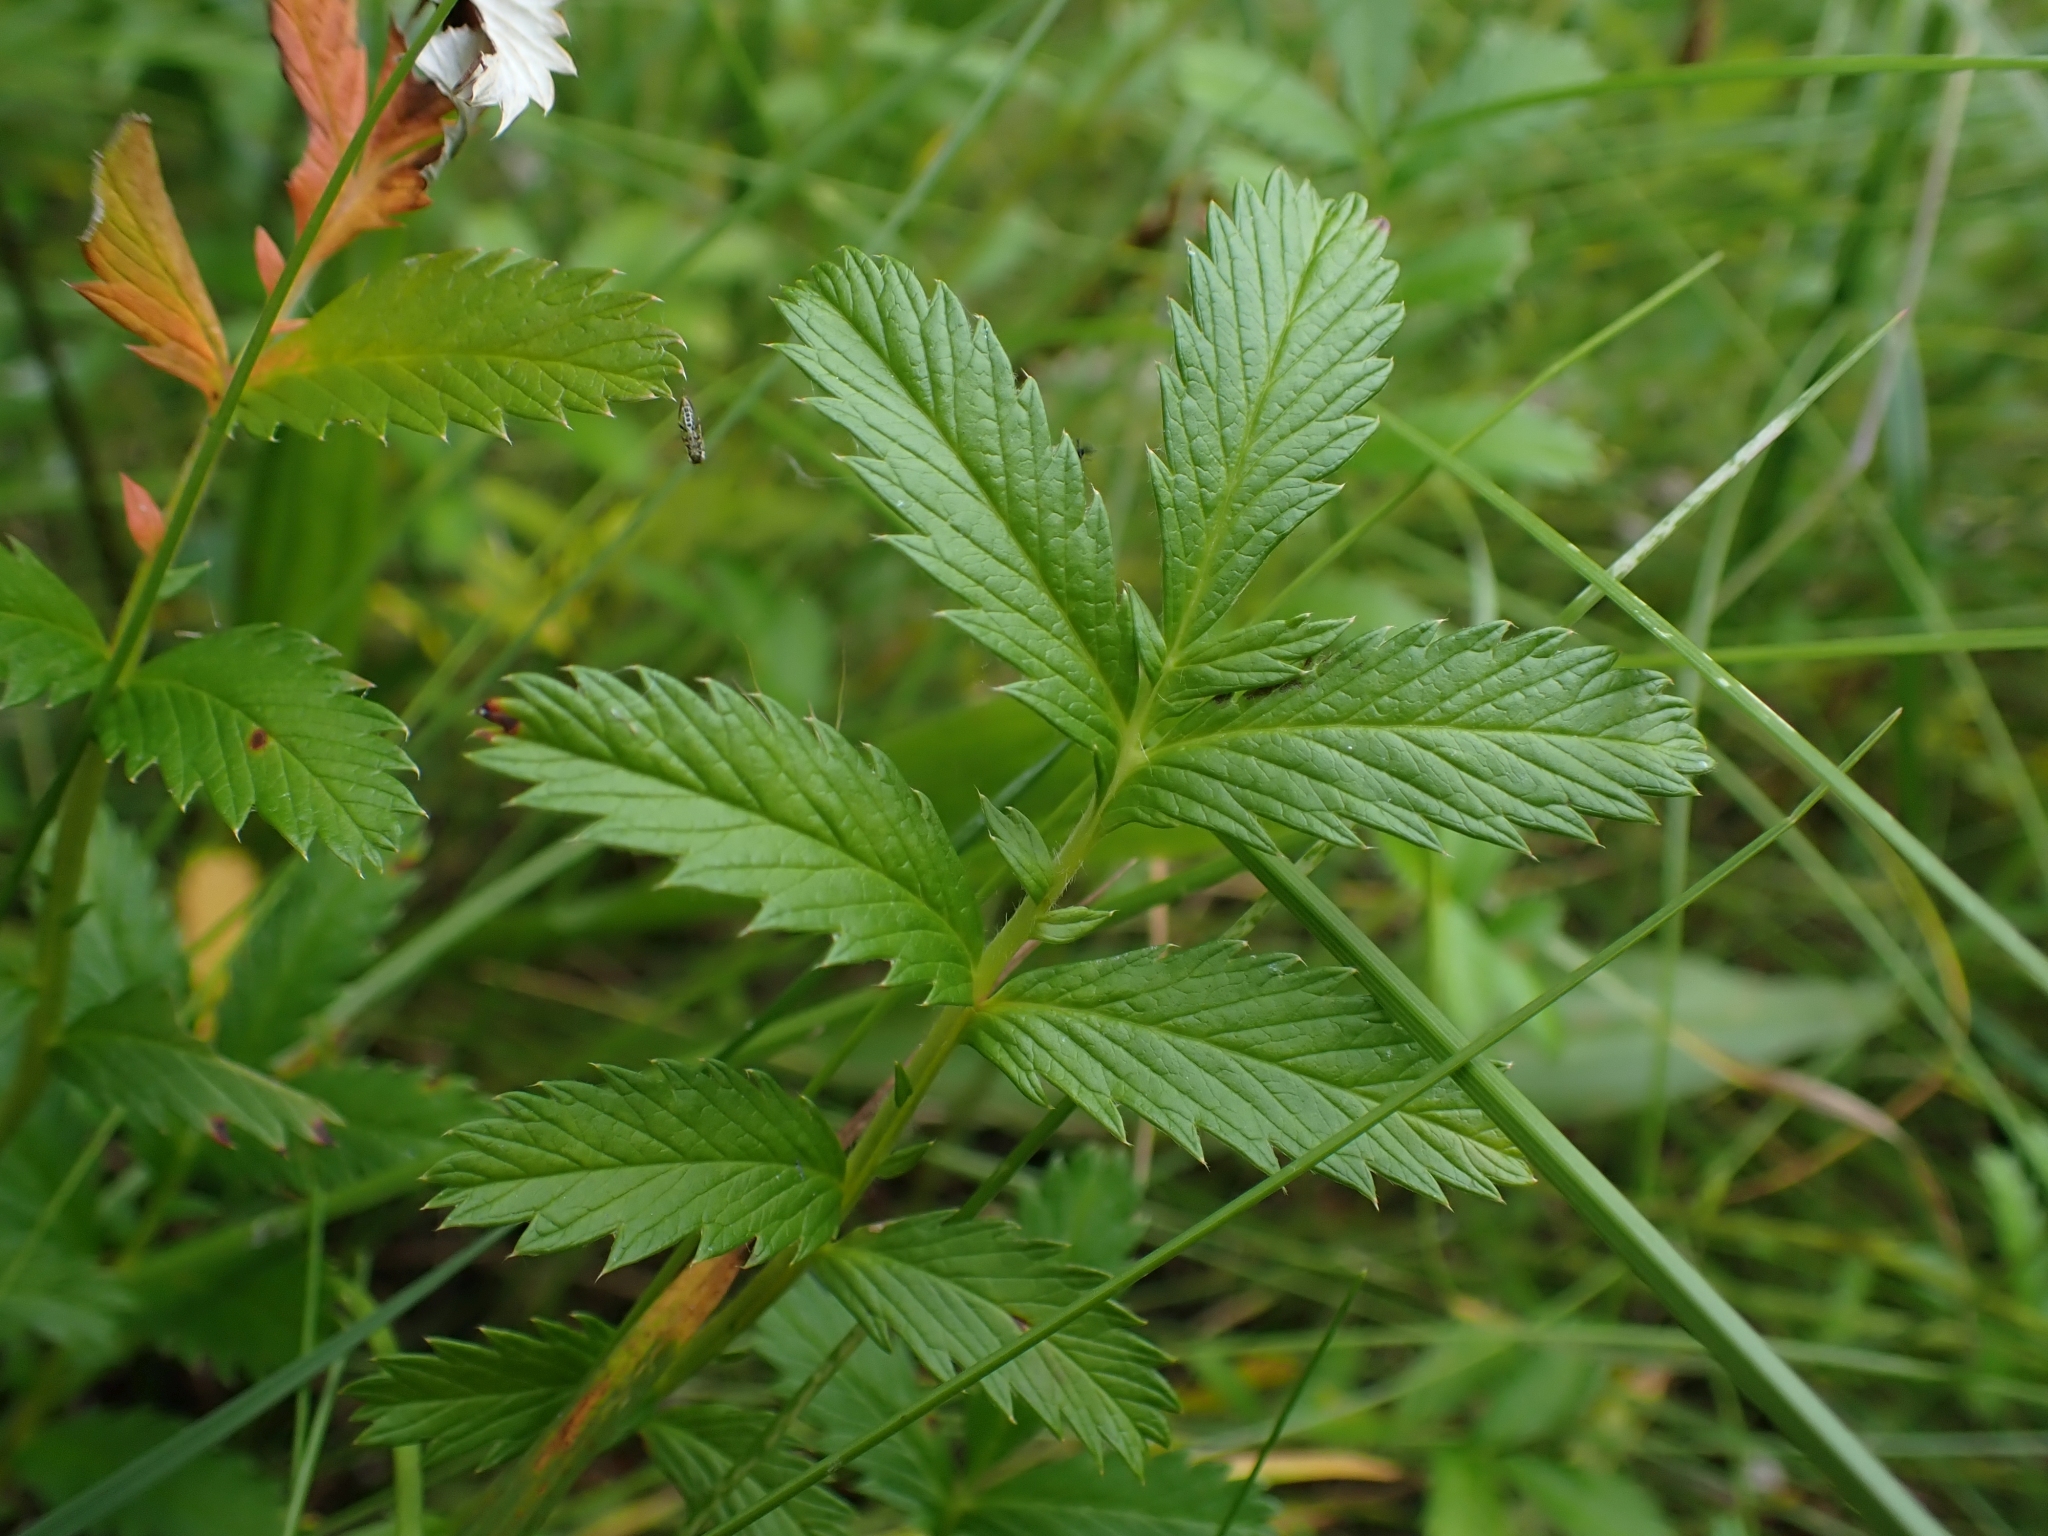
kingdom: Plantae
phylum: Tracheophyta
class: Magnoliopsida
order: Rosales
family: Rosaceae
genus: Argentina
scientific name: Argentina anserina
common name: Common silverweed
